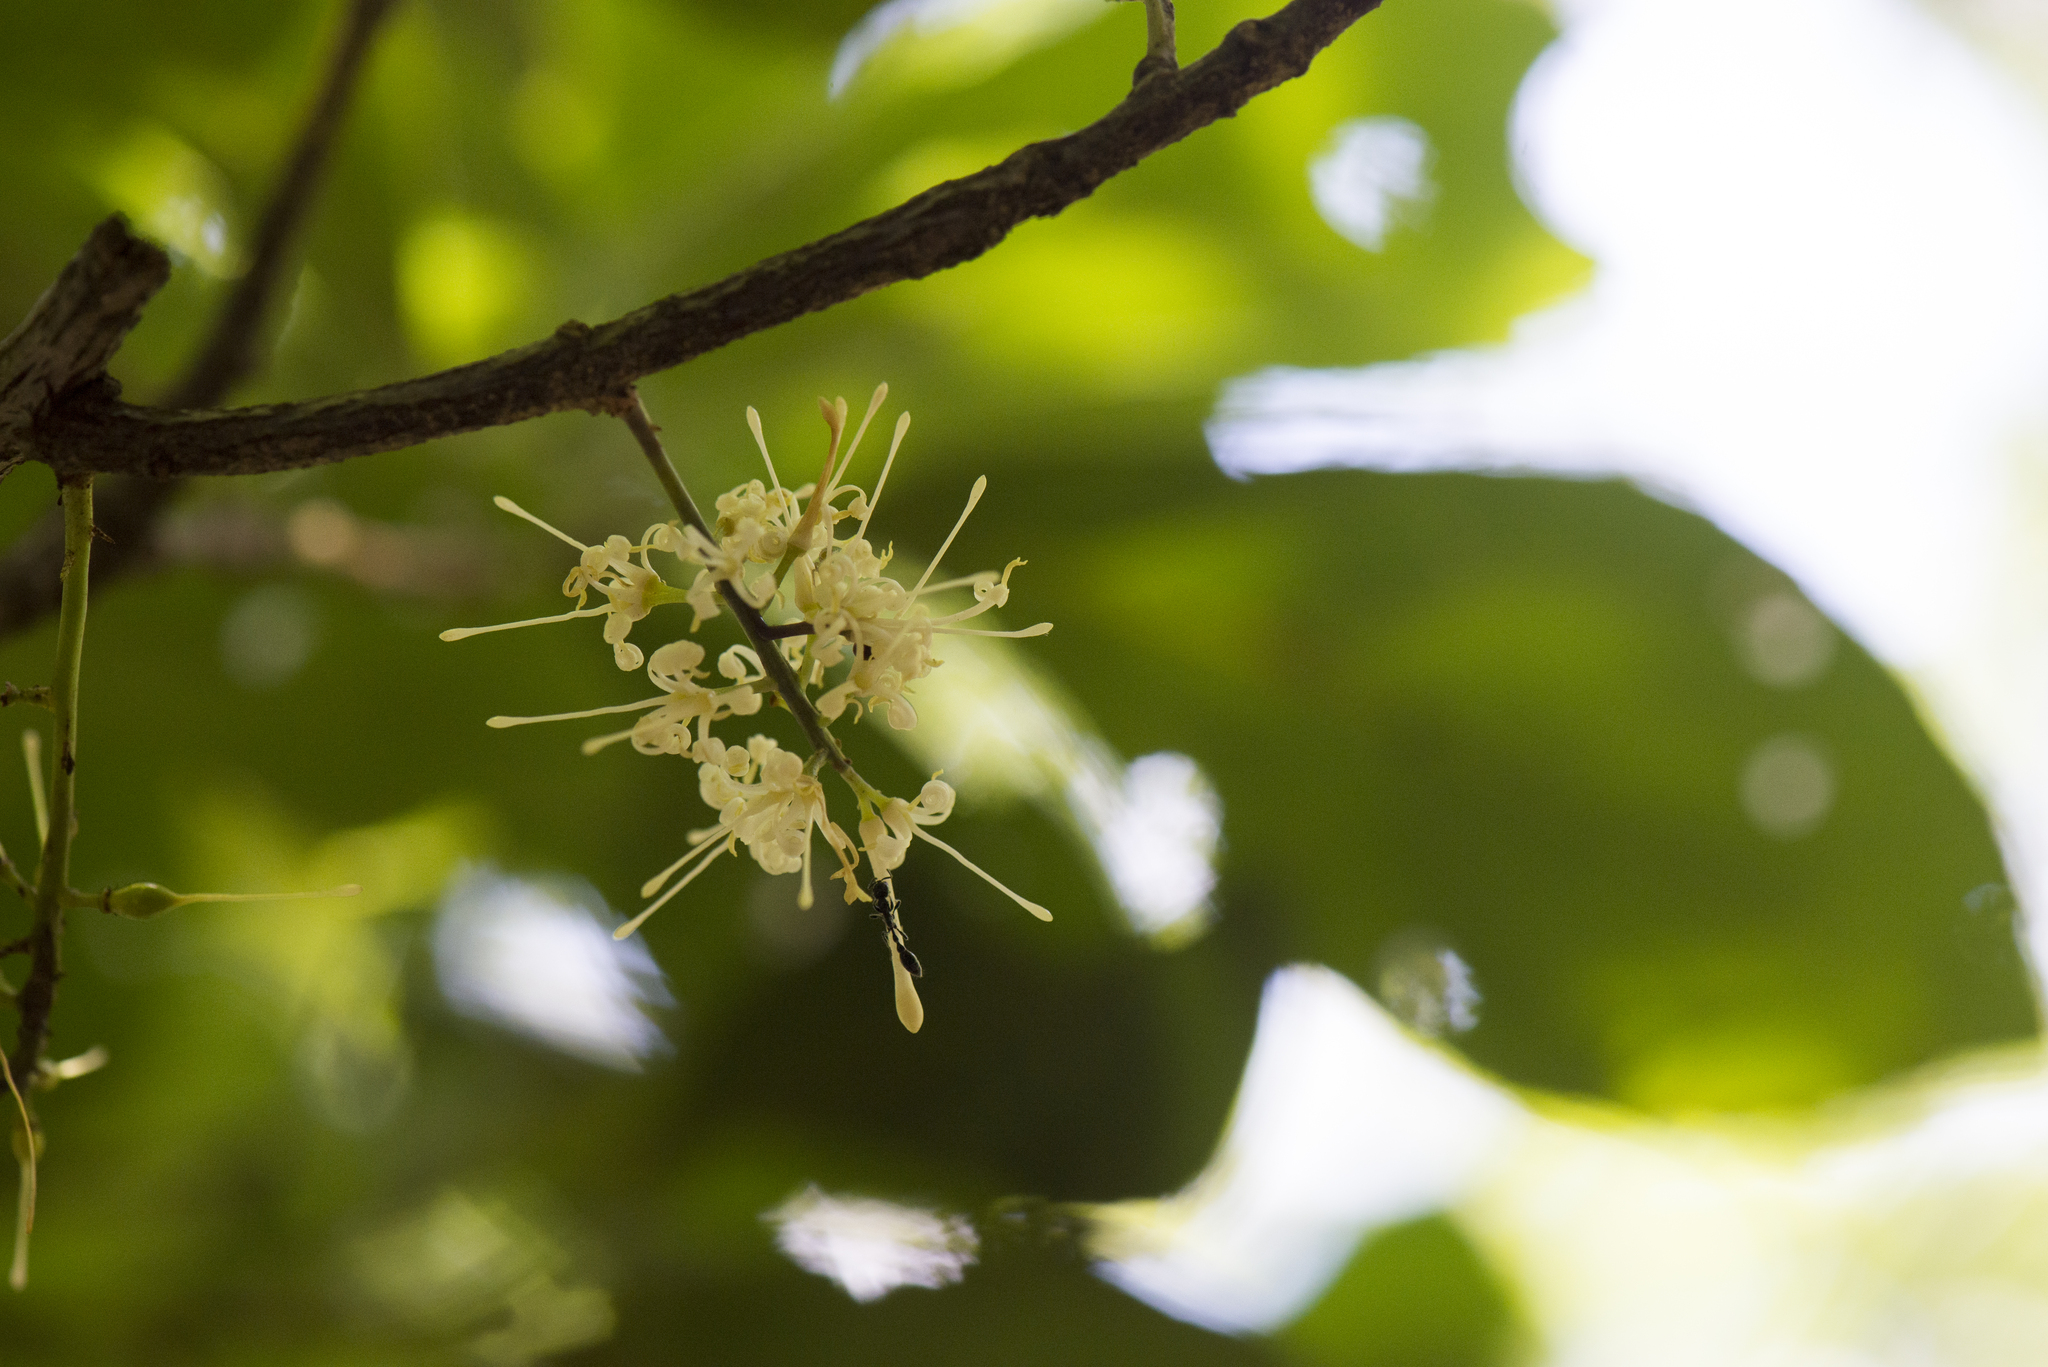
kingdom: Plantae
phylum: Tracheophyta
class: Magnoliopsida
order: Proteales
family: Proteaceae
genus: Helicia
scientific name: Helicia rengetiensis
